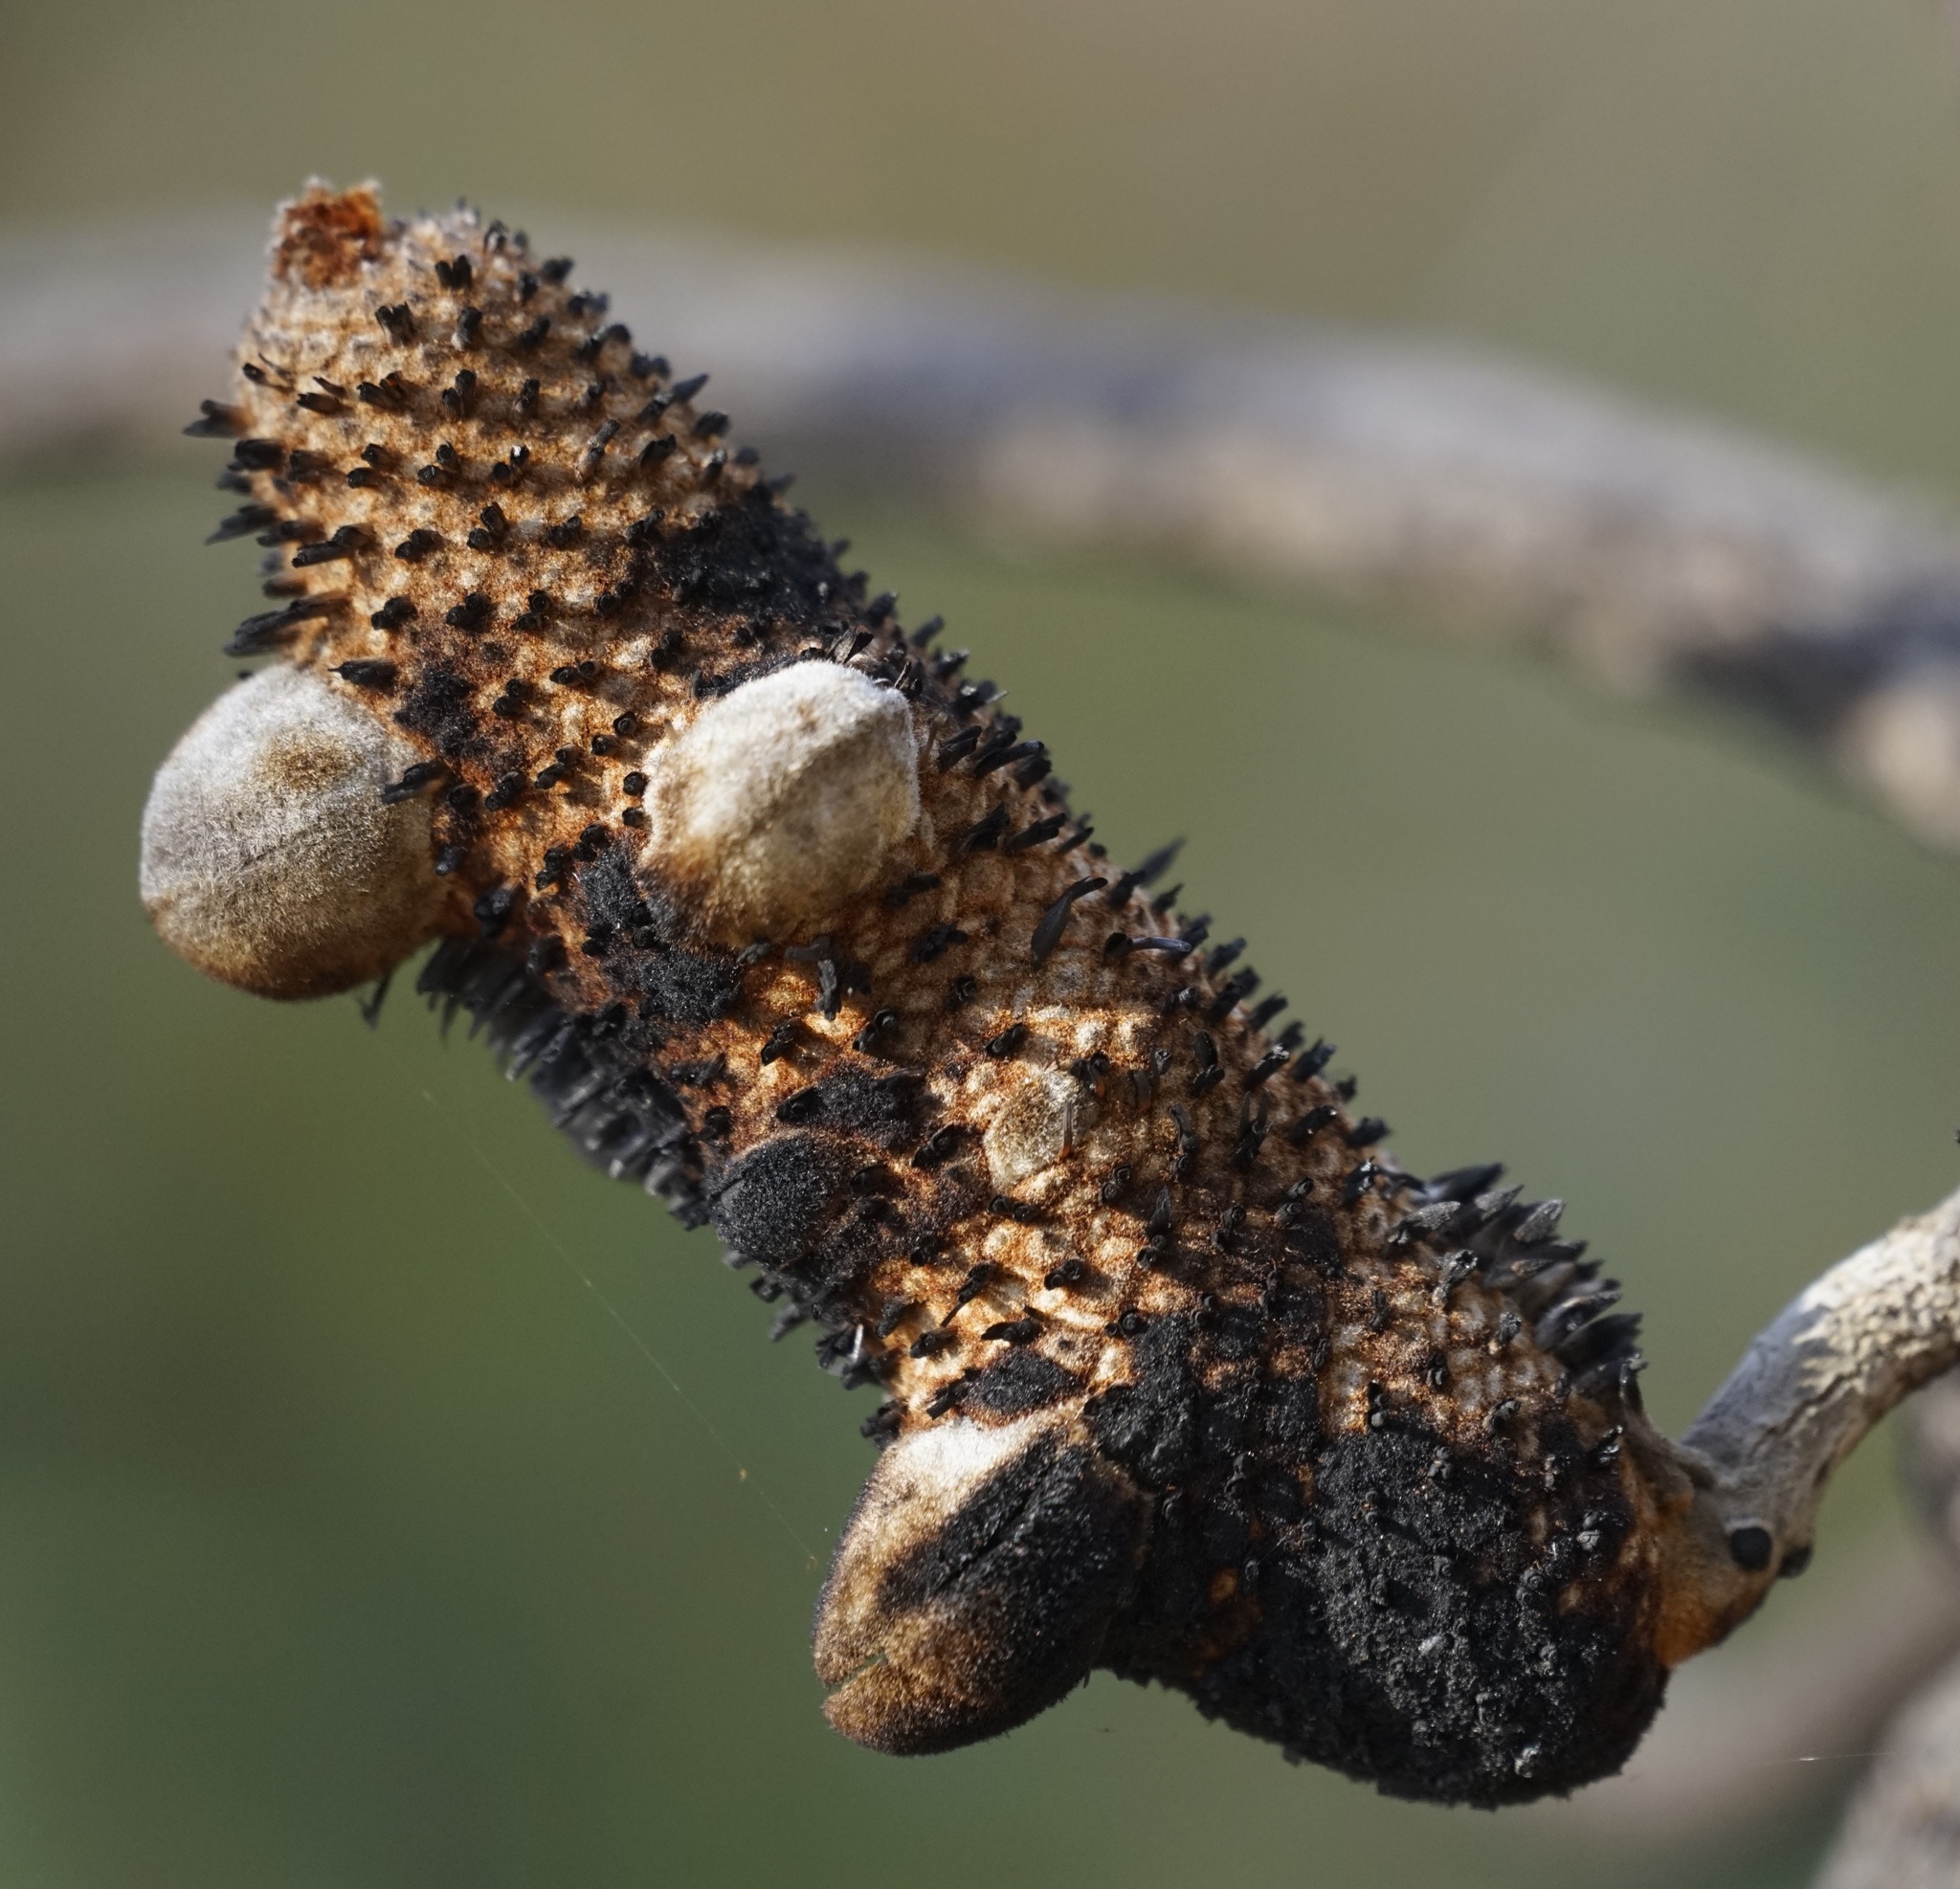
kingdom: Plantae
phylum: Tracheophyta
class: Magnoliopsida
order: Proteales
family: Proteaceae
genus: Banksia
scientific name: Banksia serrata
